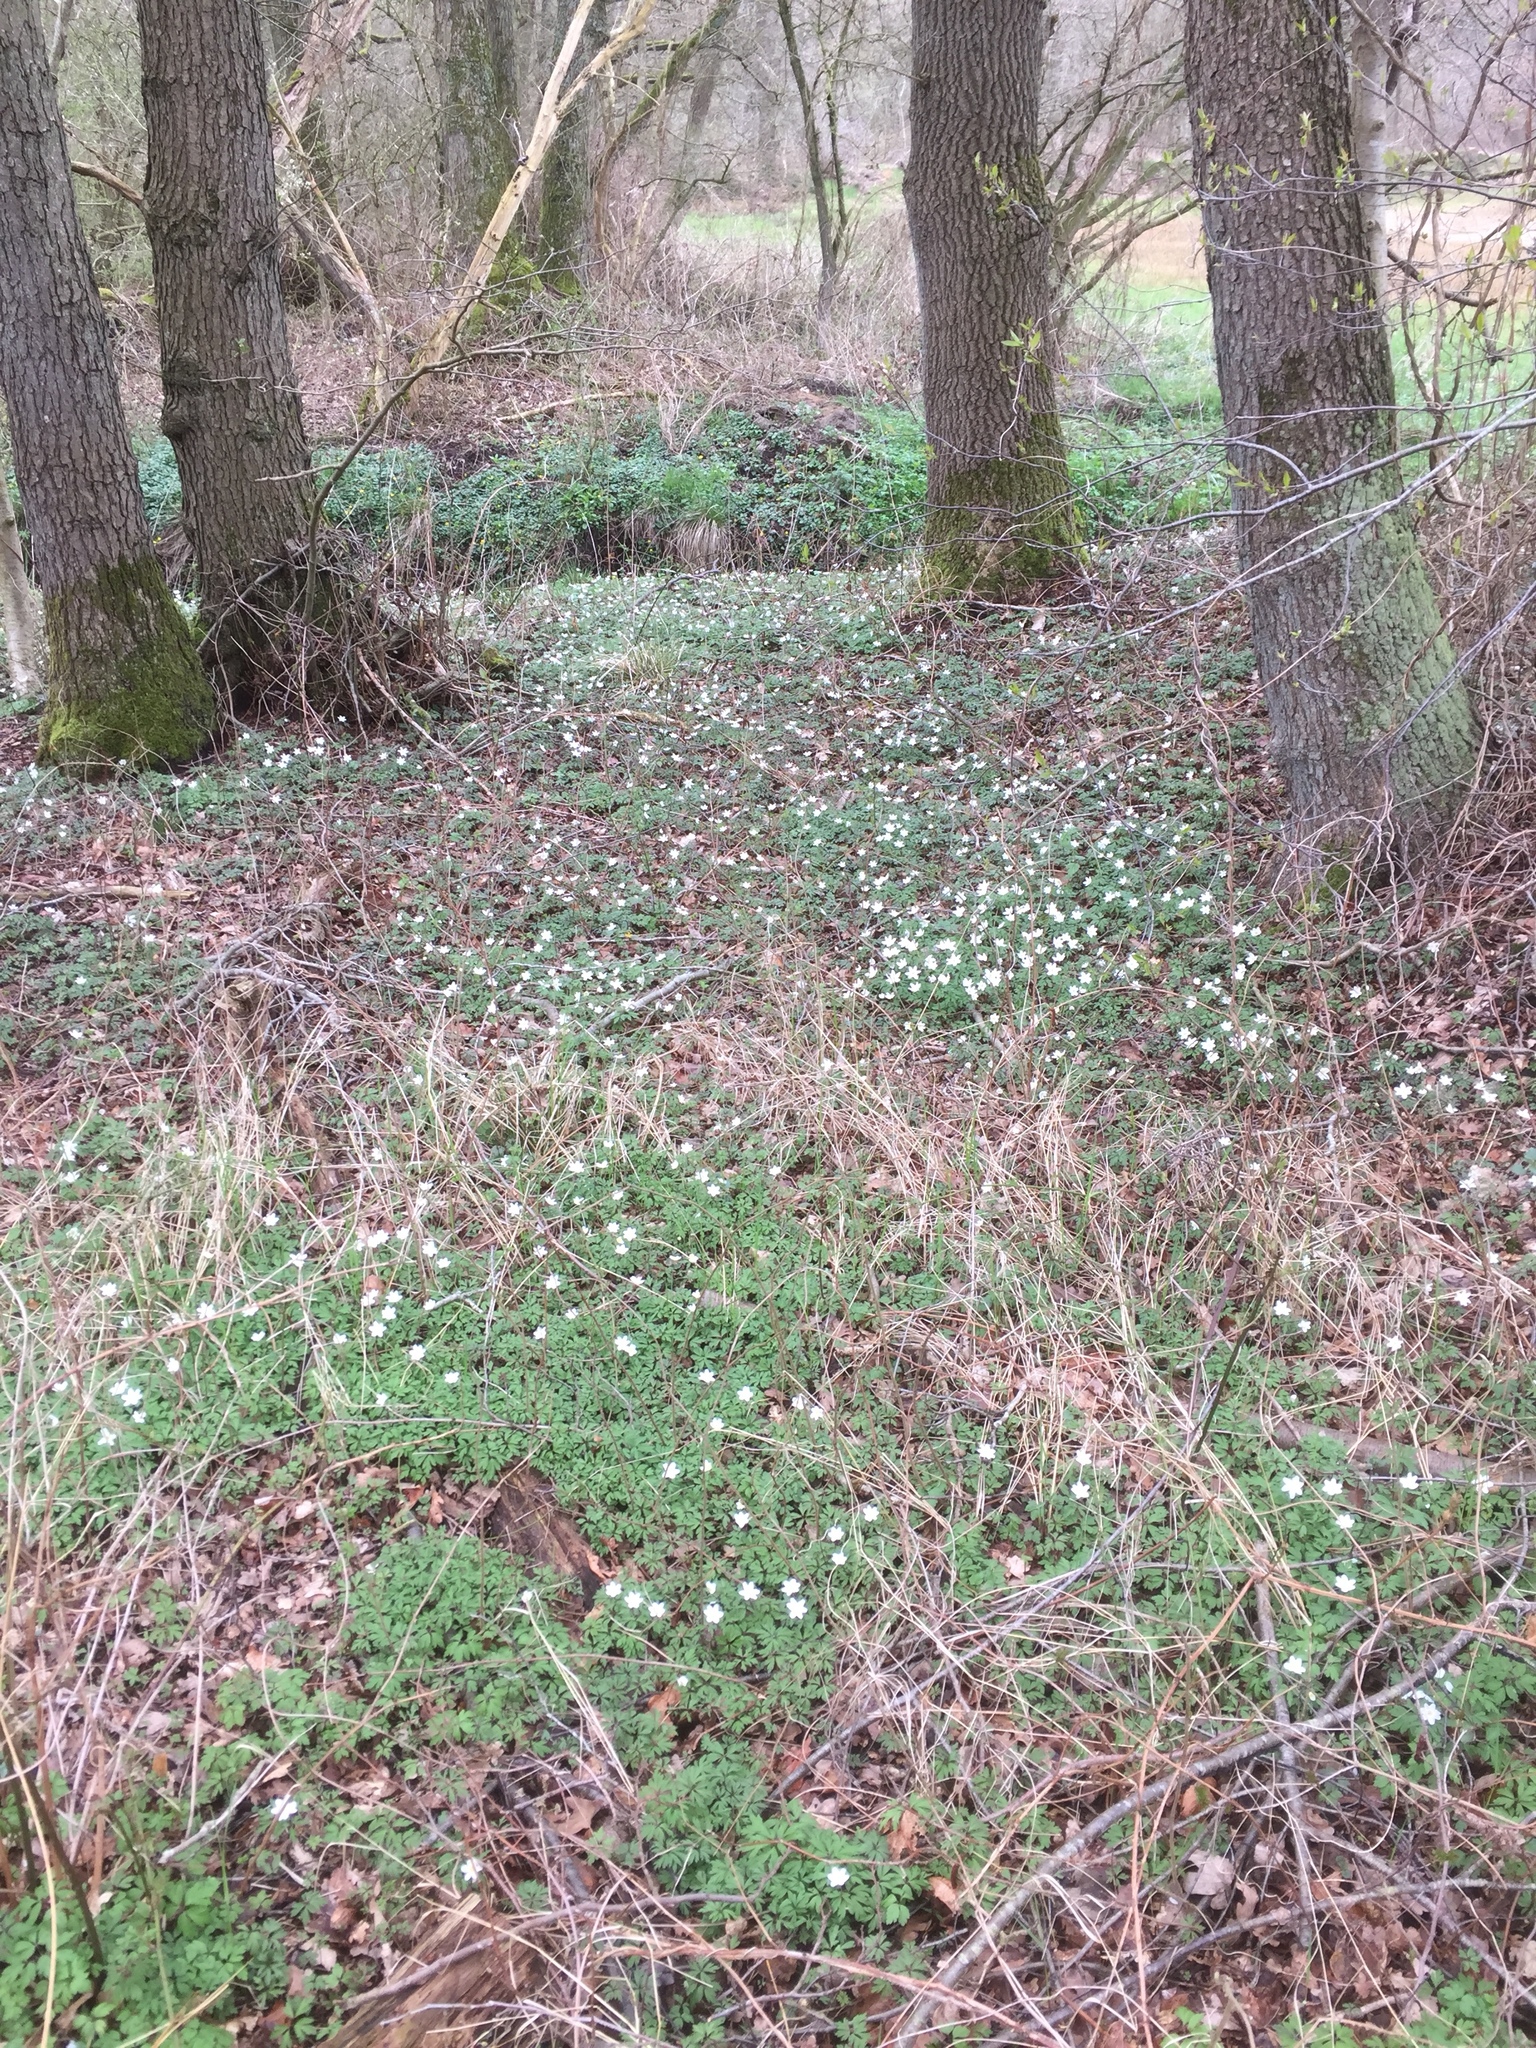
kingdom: Plantae
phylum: Tracheophyta
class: Magnoliopsida
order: Ranunculales
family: Ranunculaceae
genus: Anemone
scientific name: Anemone nemorosa
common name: Wood anemone
